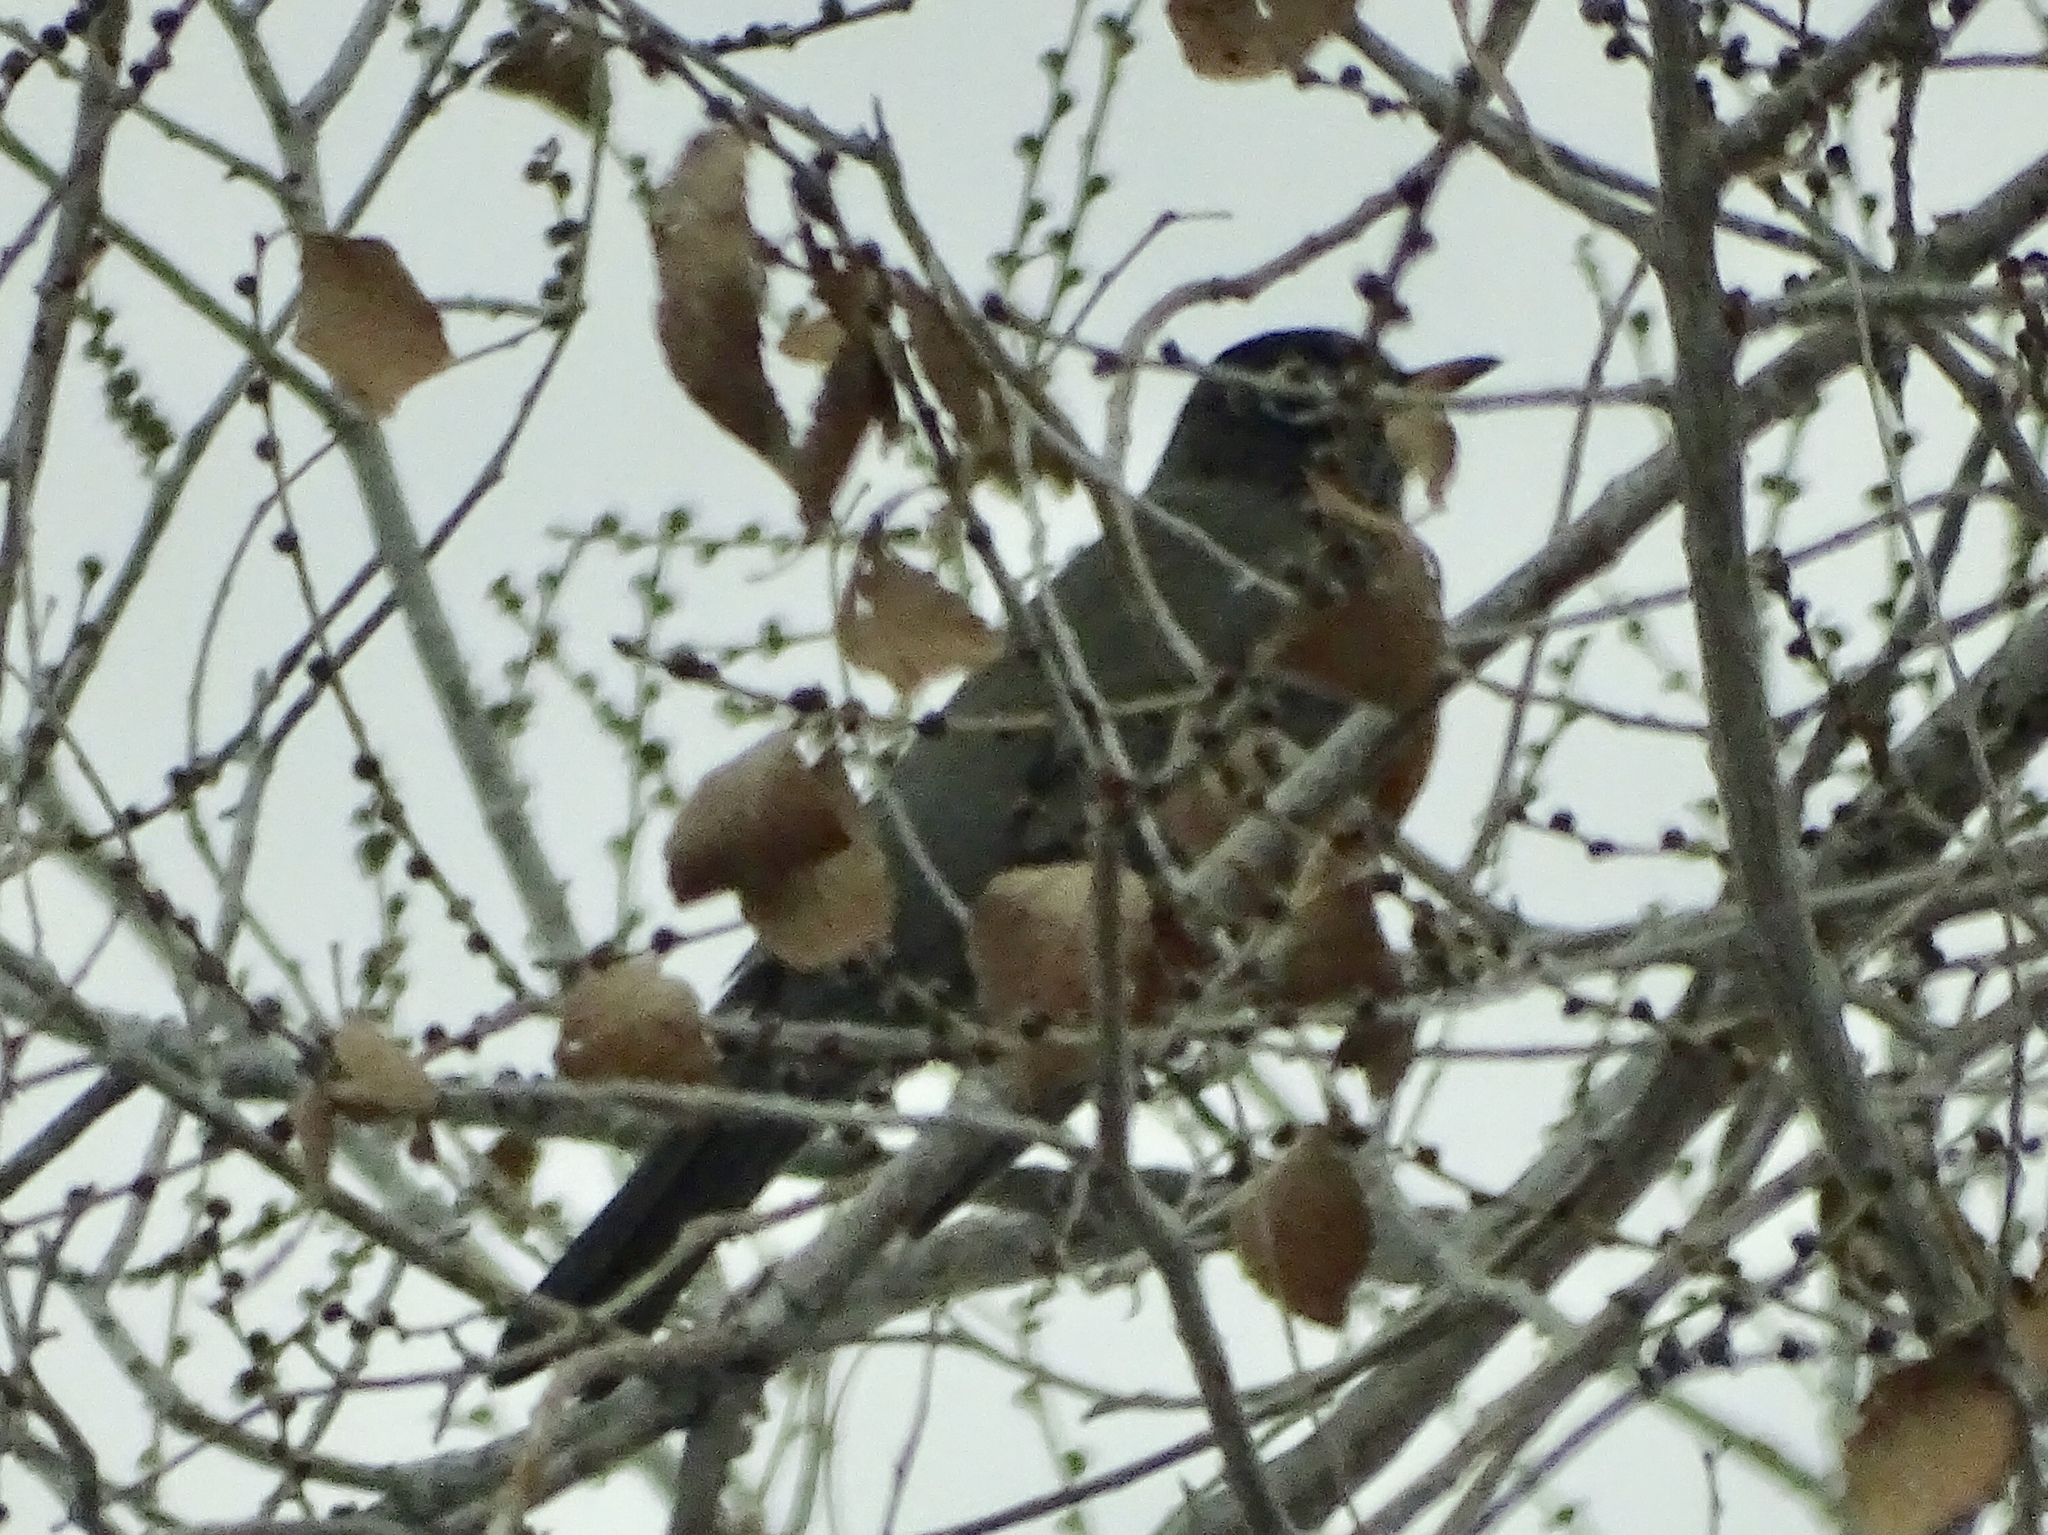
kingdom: Animalia
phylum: Chordata
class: Aves
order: Passeriformes
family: Turdidae
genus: Turdus
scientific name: Turdus migratorius
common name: American robin
